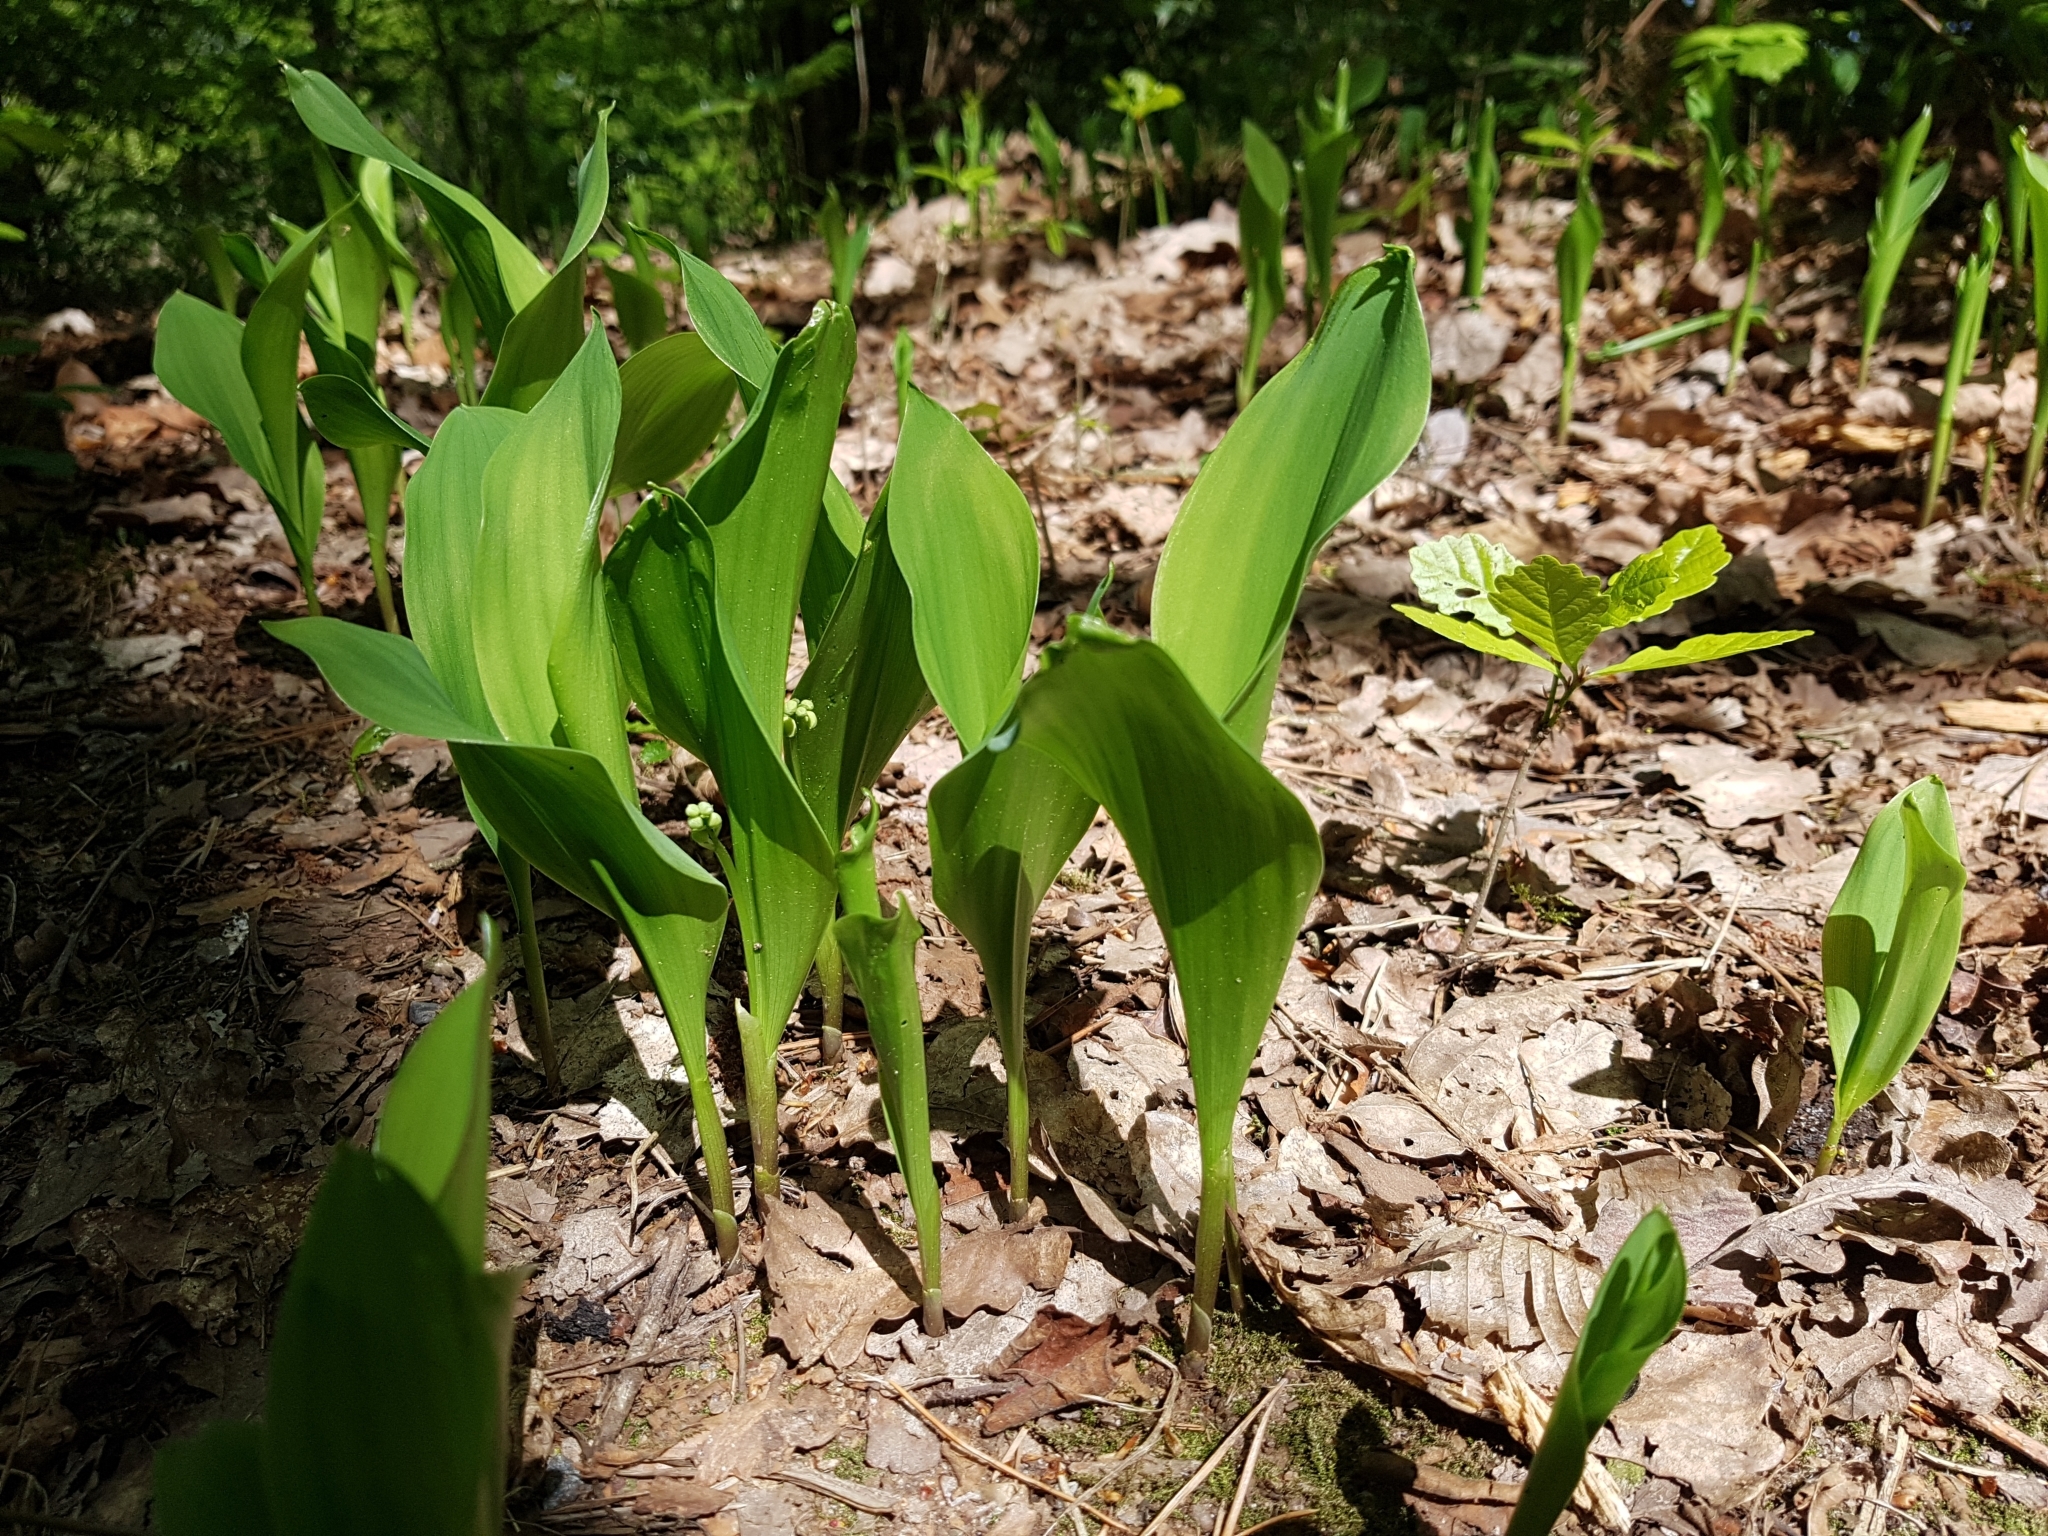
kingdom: Plantae
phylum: Tracheophyta
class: Liliopsida
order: Asparagales
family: Asparagaceae
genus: Convallaria
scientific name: Convallaria majalis
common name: Lily-of-the-valley
